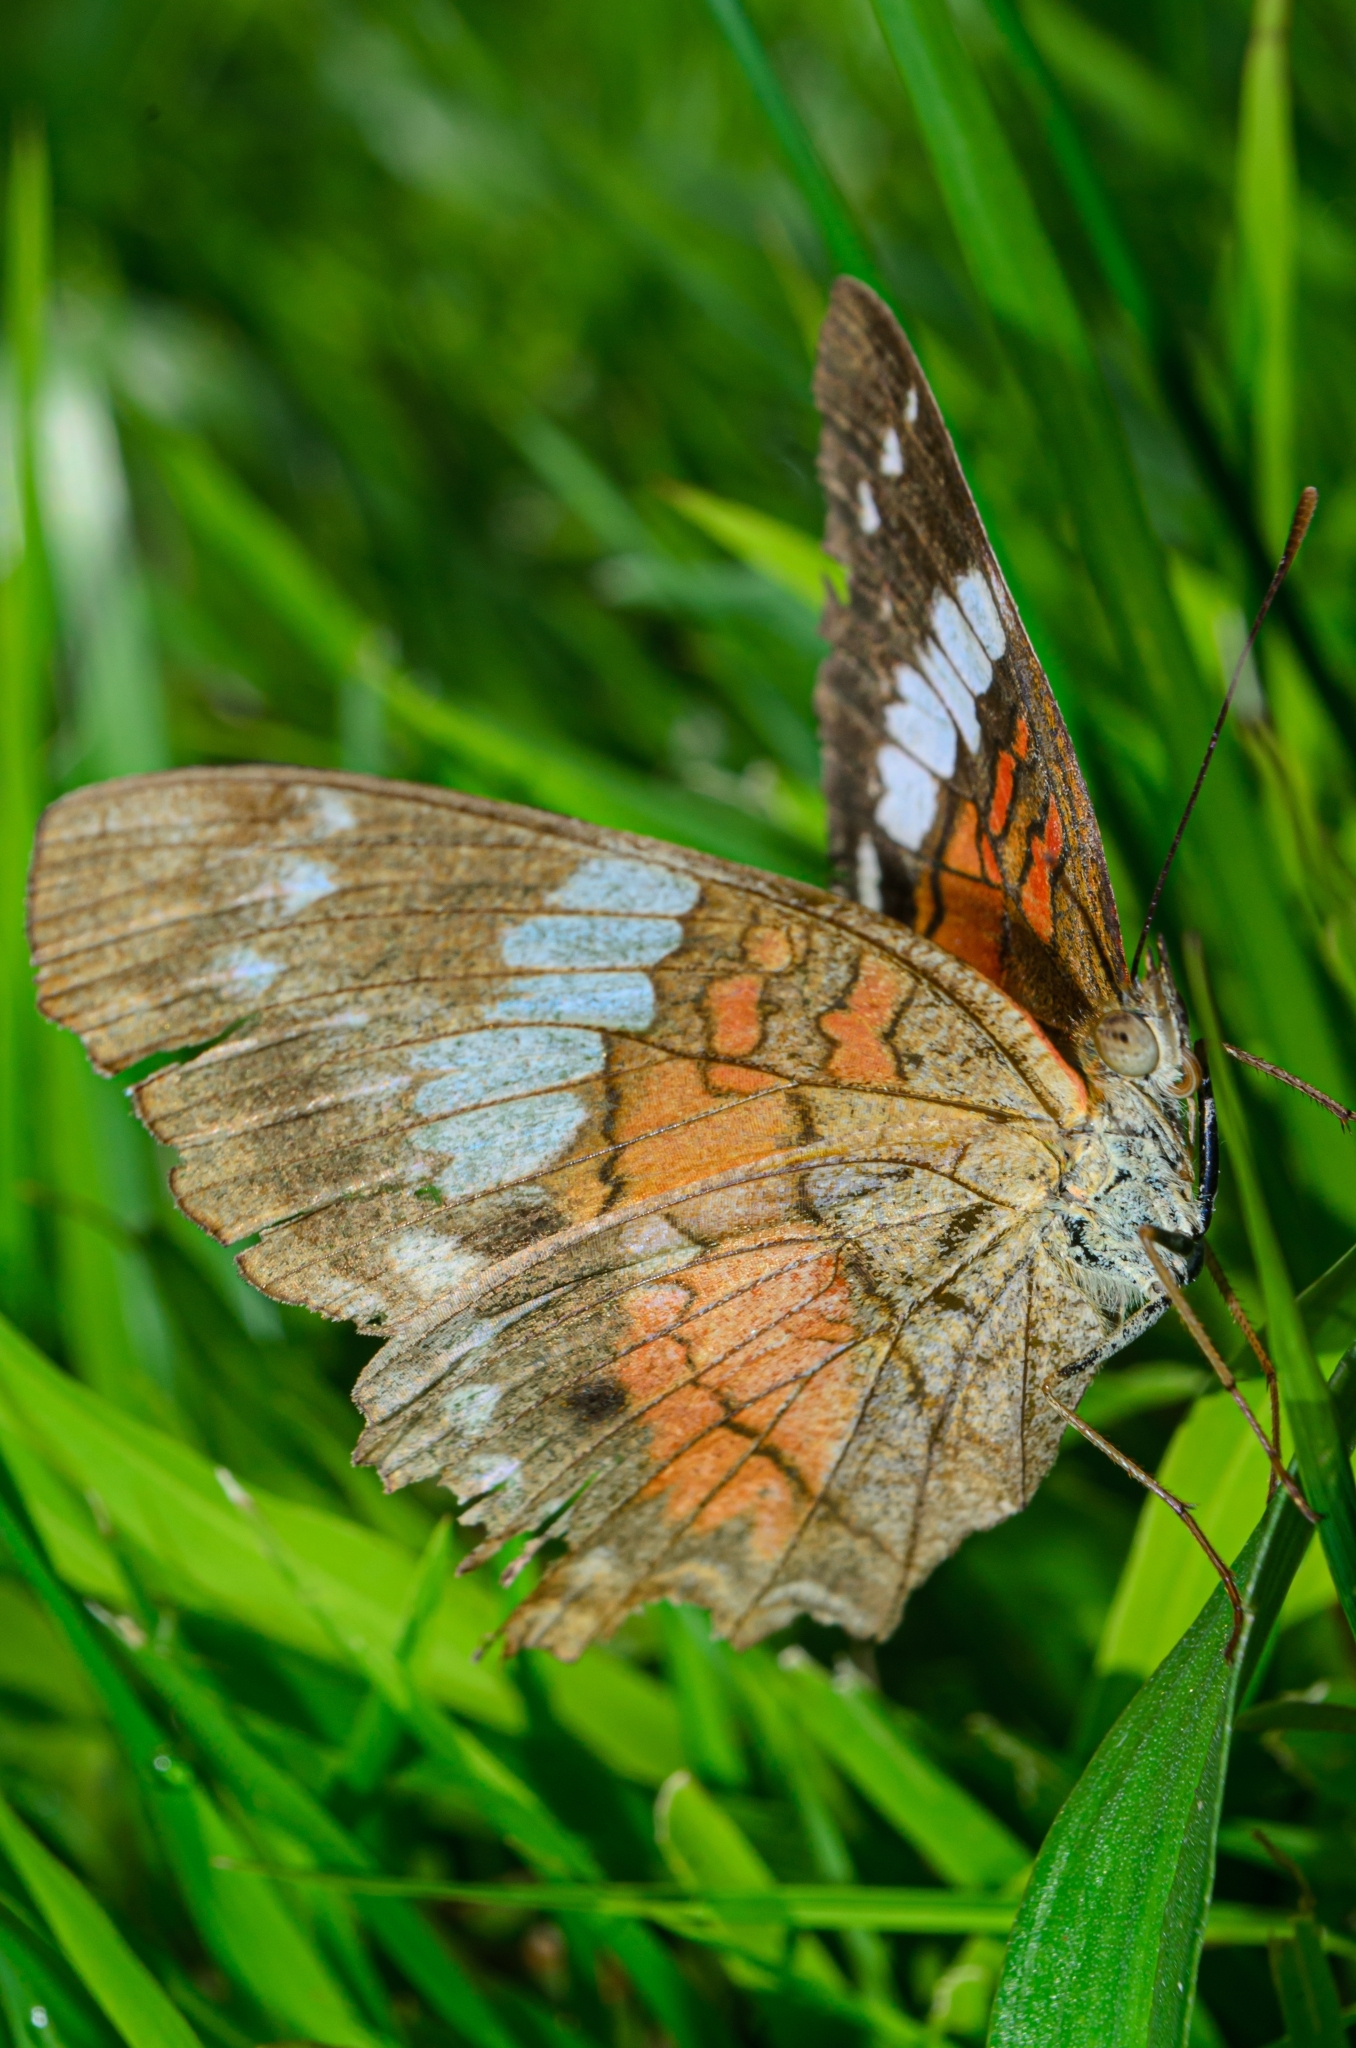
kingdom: Animalia
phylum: Arthropoda
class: Insecta
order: Lepidoptera
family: Nymphalidae
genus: Anartia
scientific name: Anartia amathea
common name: Red peacock
